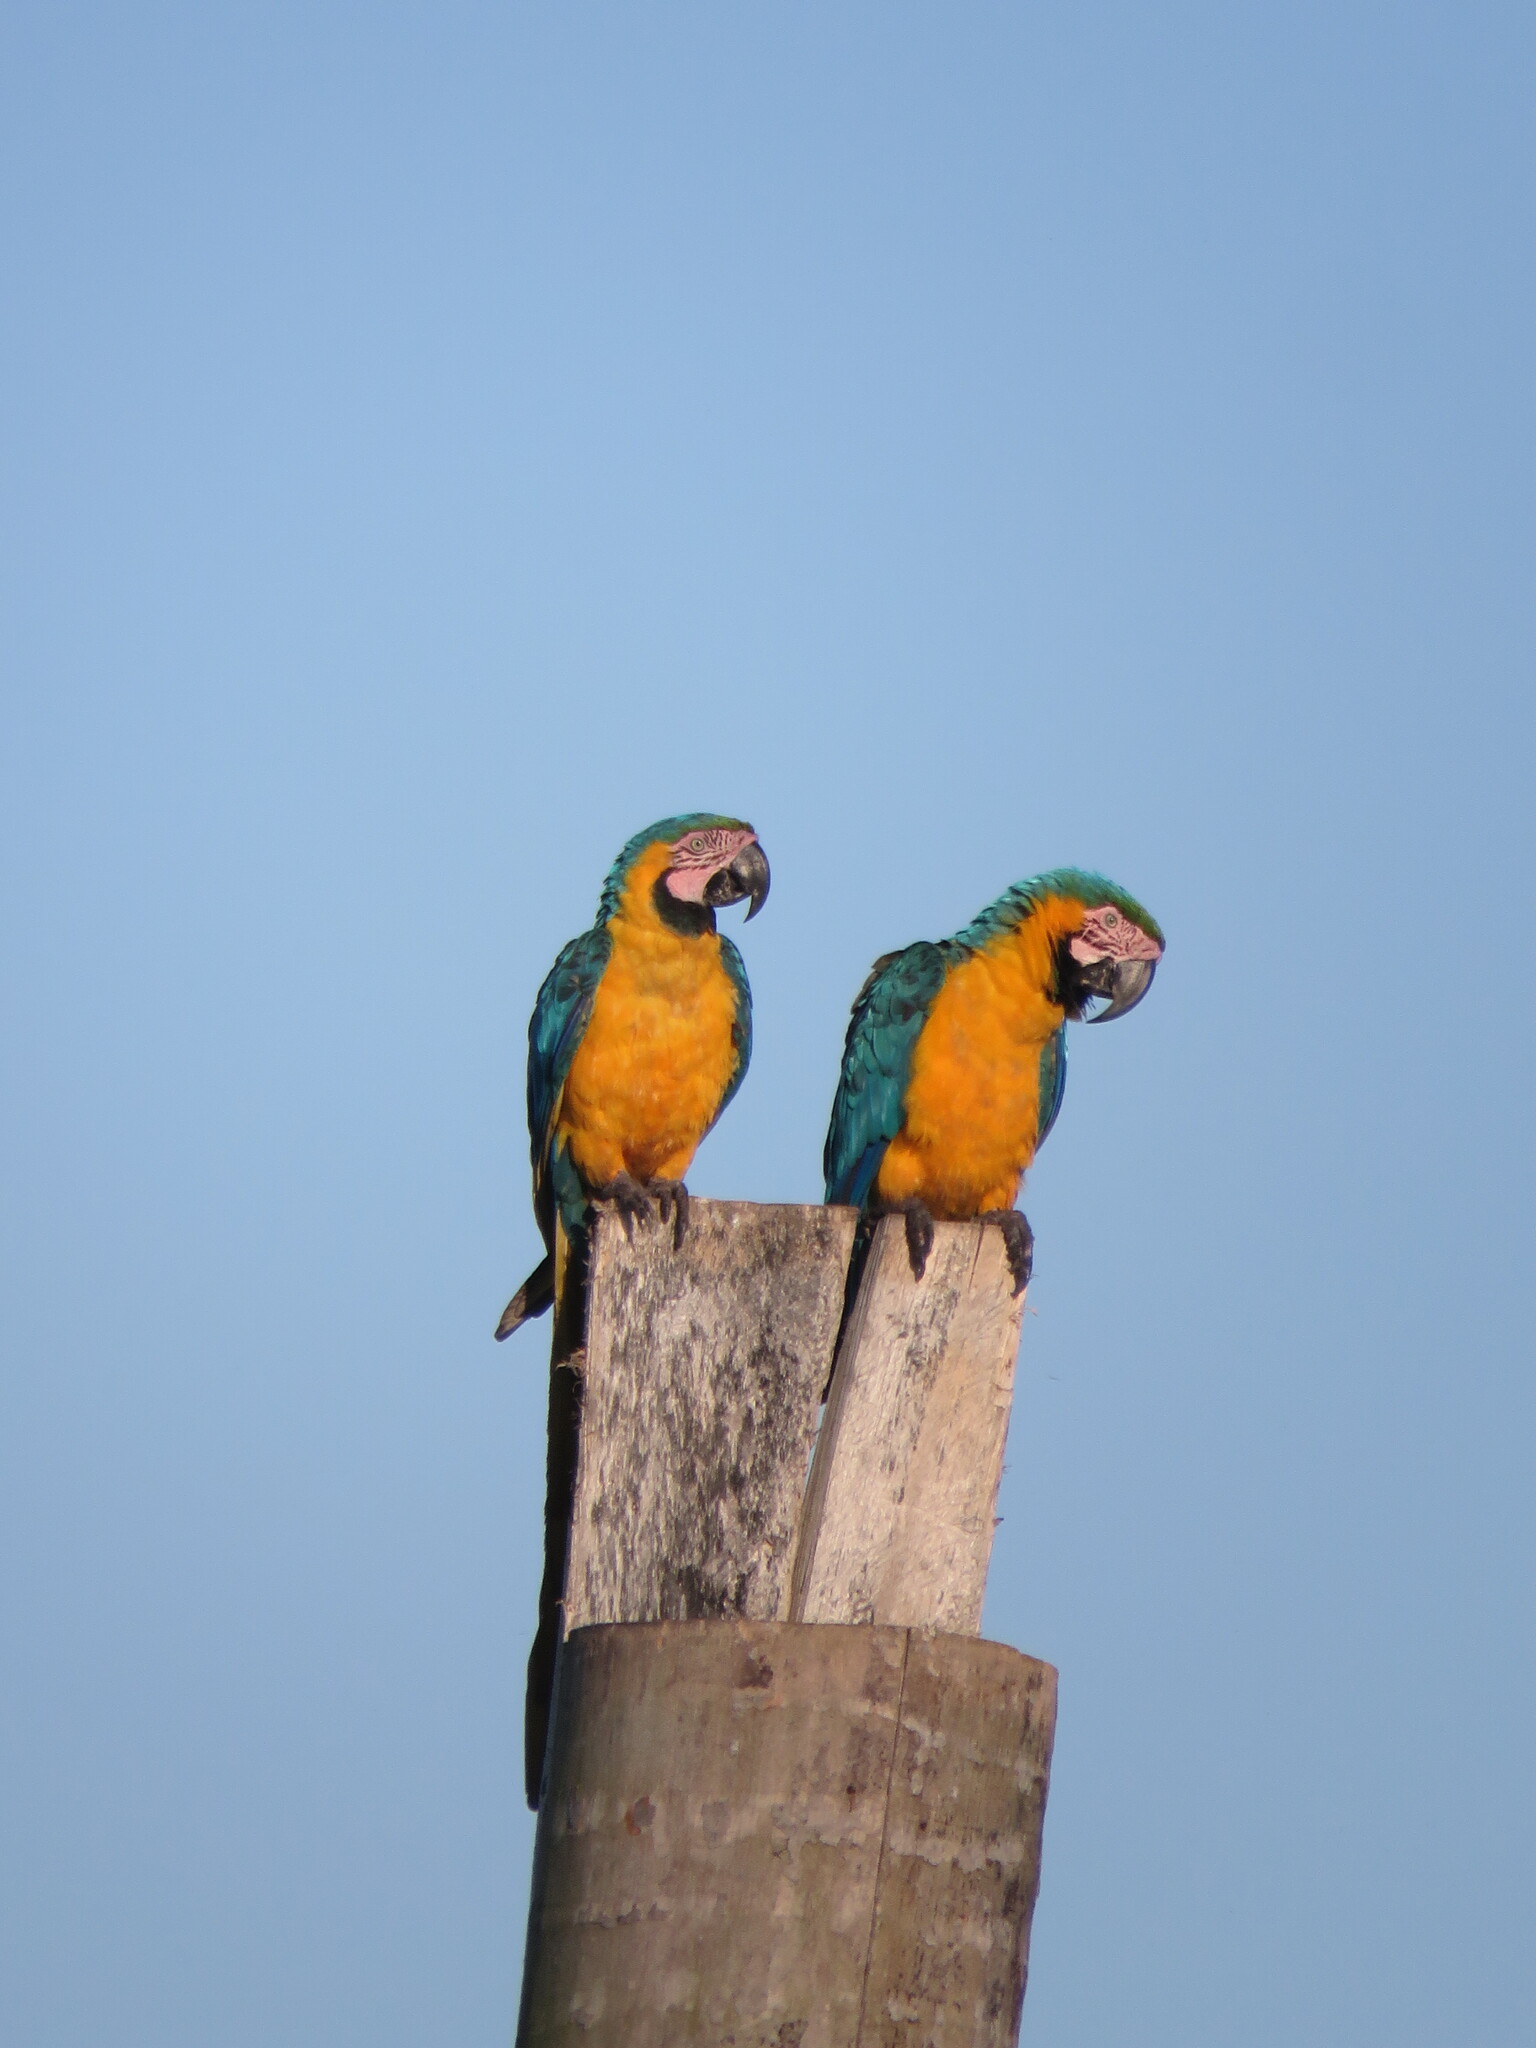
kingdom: Animalia
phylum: Chordata
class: Aves
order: Psittaciformes
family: Psittacidae
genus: Ara
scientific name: Ara ararauna
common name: Blue-and-yellow macaw
